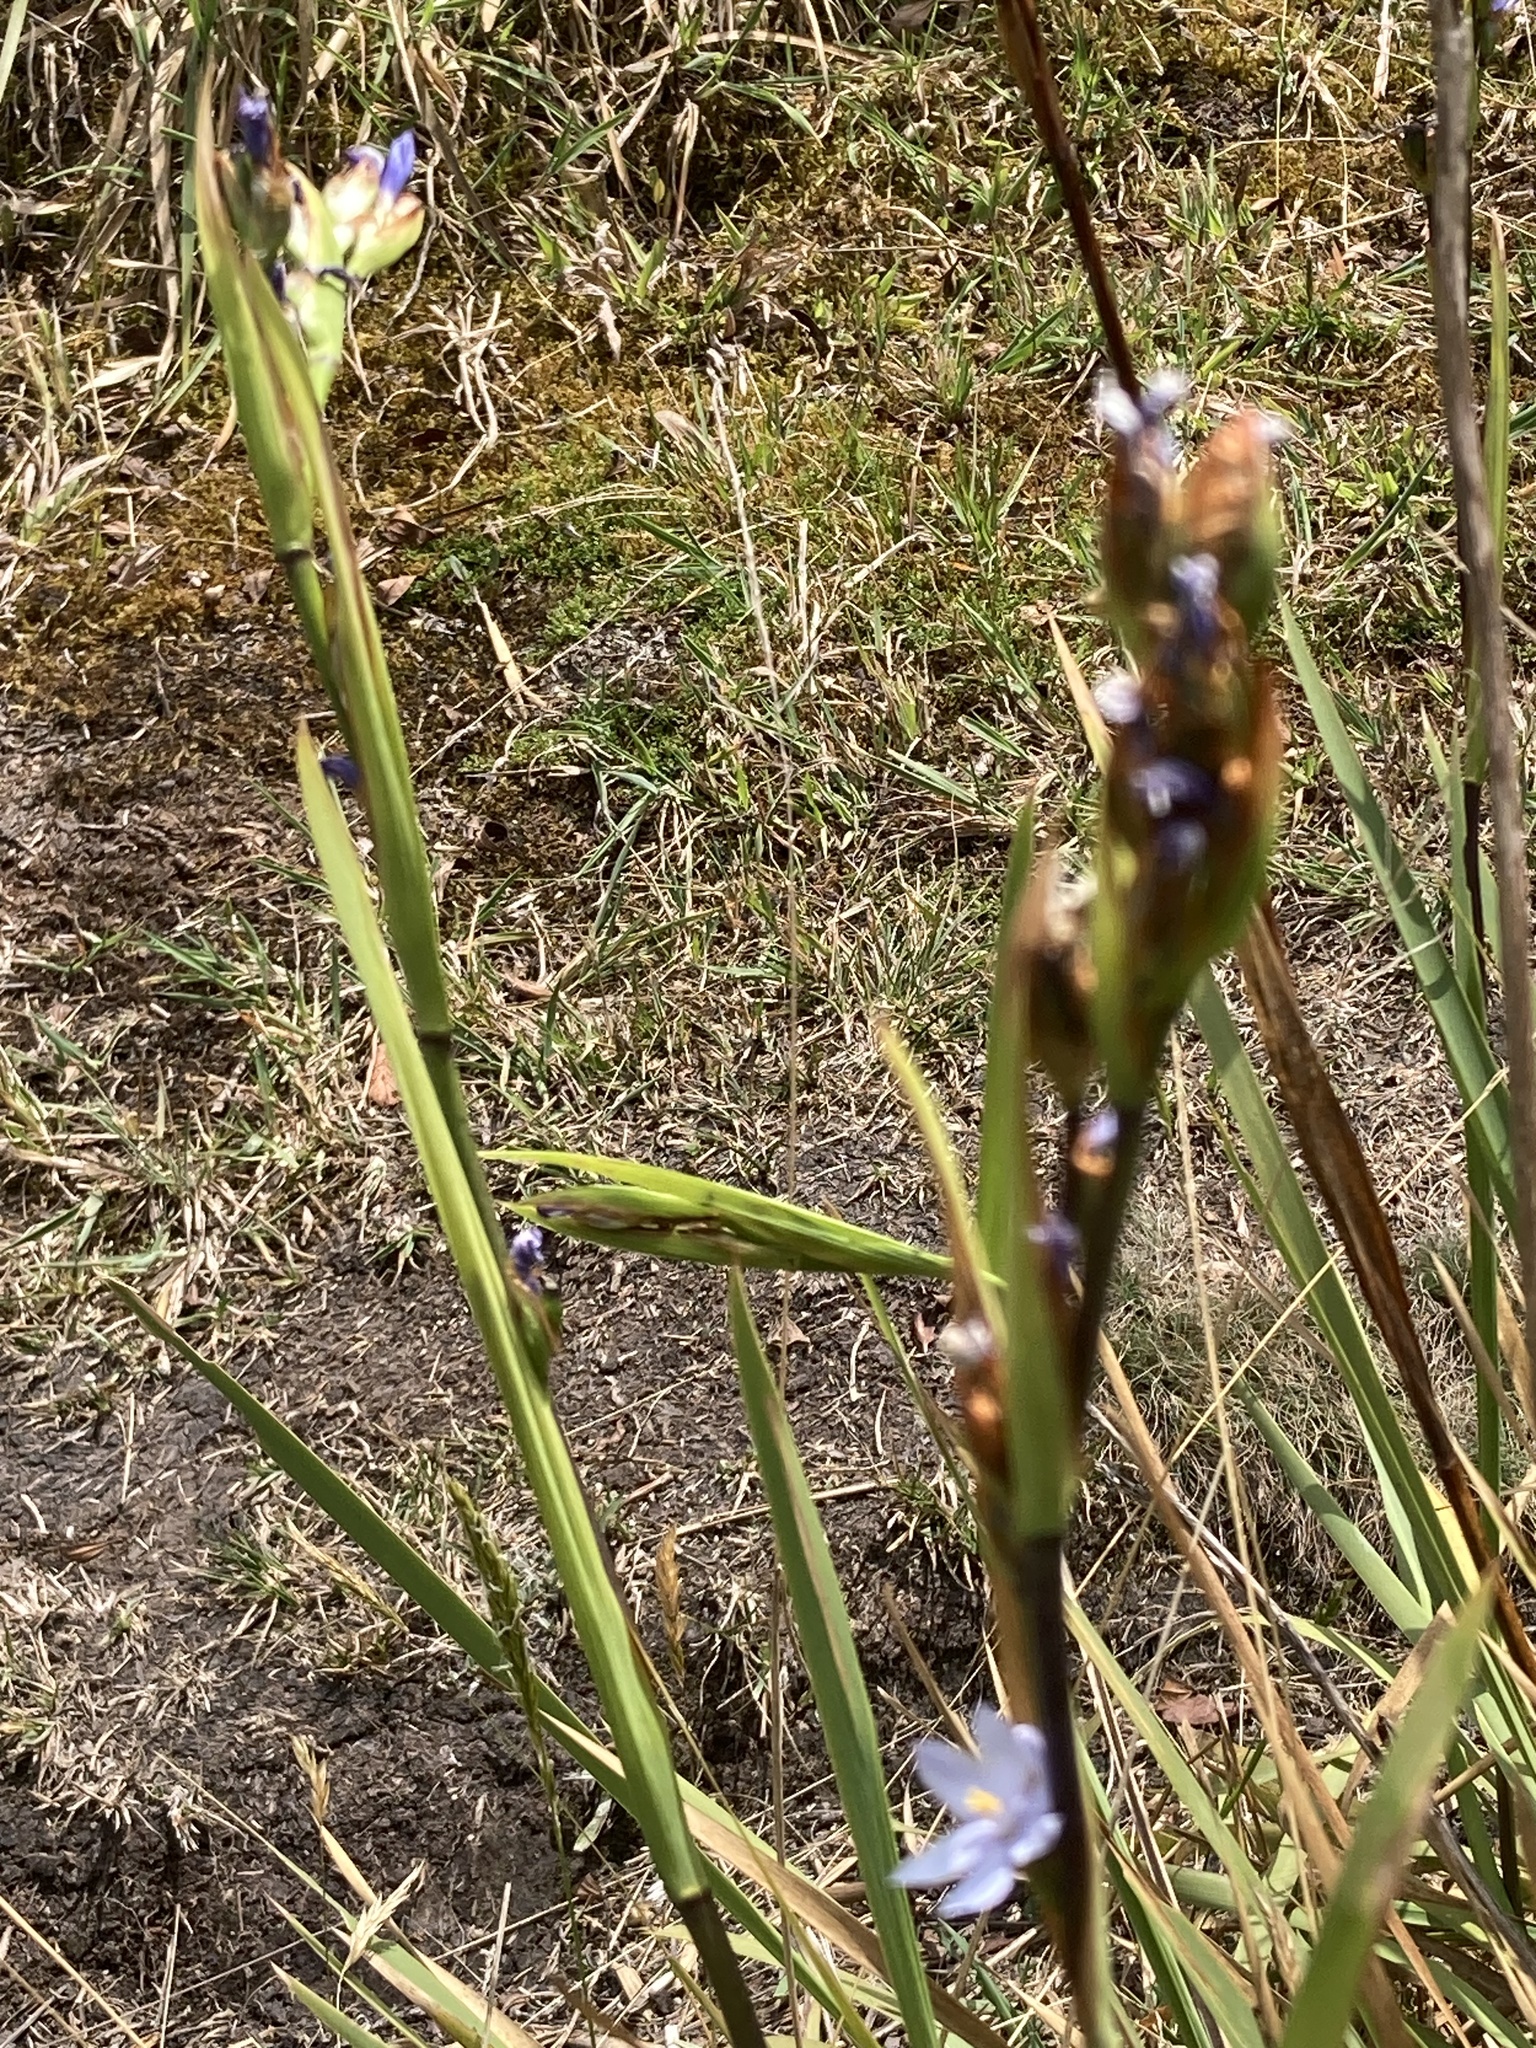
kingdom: Plantae
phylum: Tracheophyta
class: Liliopsida
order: Asparagales
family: Iridaceae
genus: Orthrosanthus
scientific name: Orthrosanthus chimboracensis
